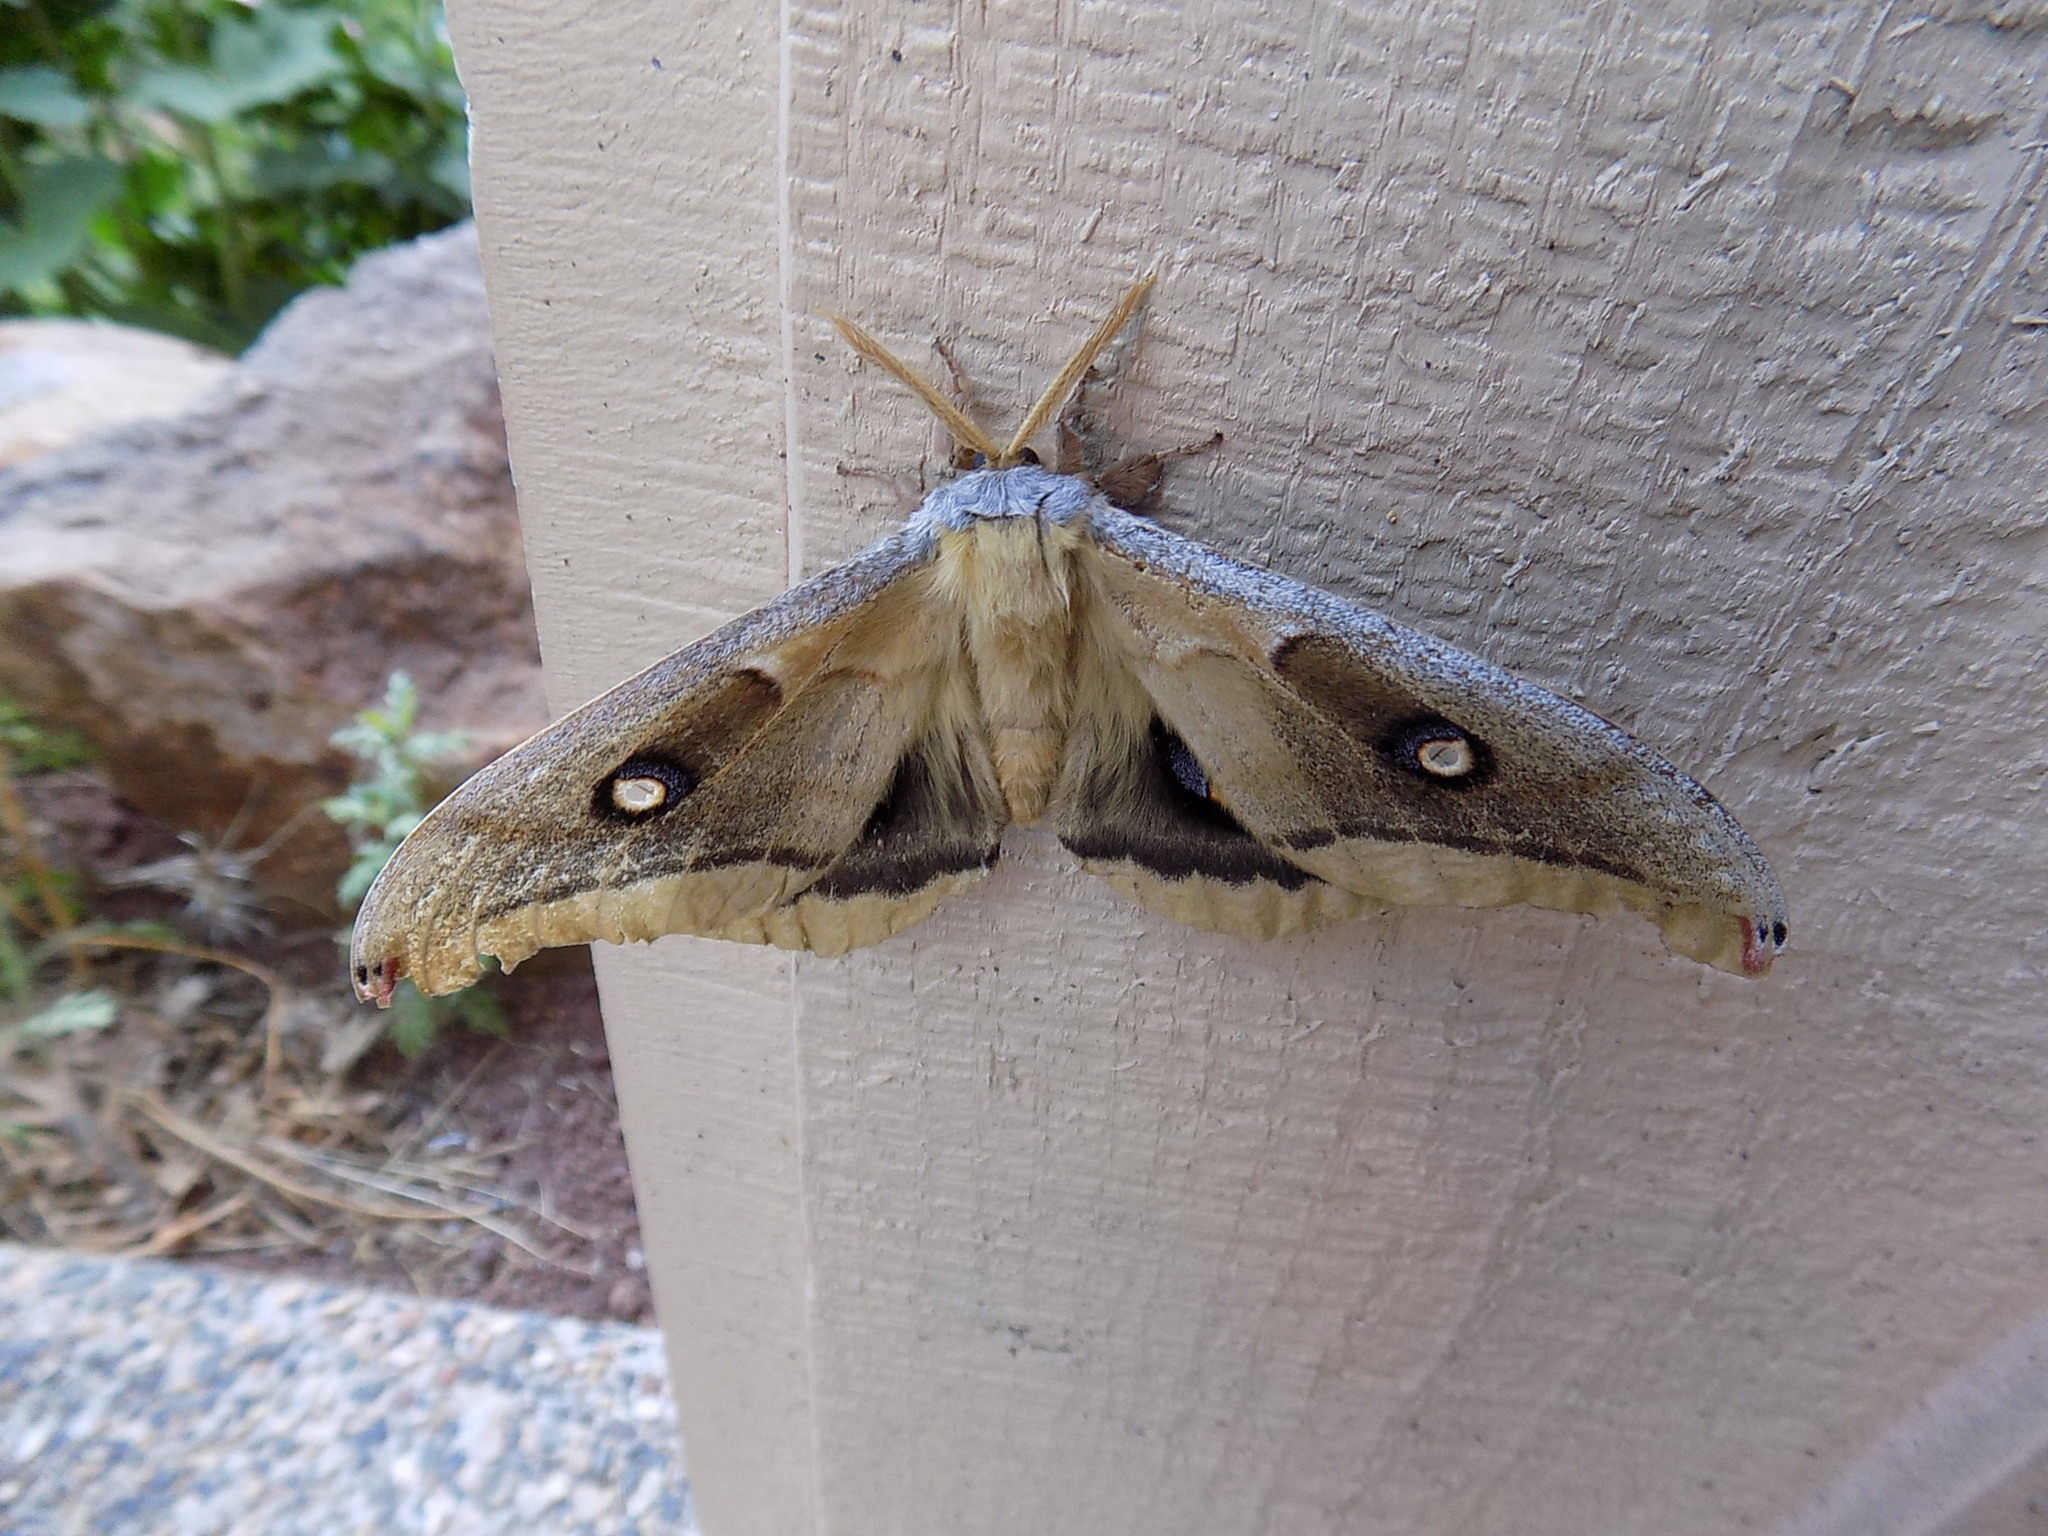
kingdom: Animalia
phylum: Arthropoda
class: Insecta
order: Lepidoptera
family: Saturniidae
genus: Antheraea
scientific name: Antheraea oculea
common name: Arizona polyphemus moth
